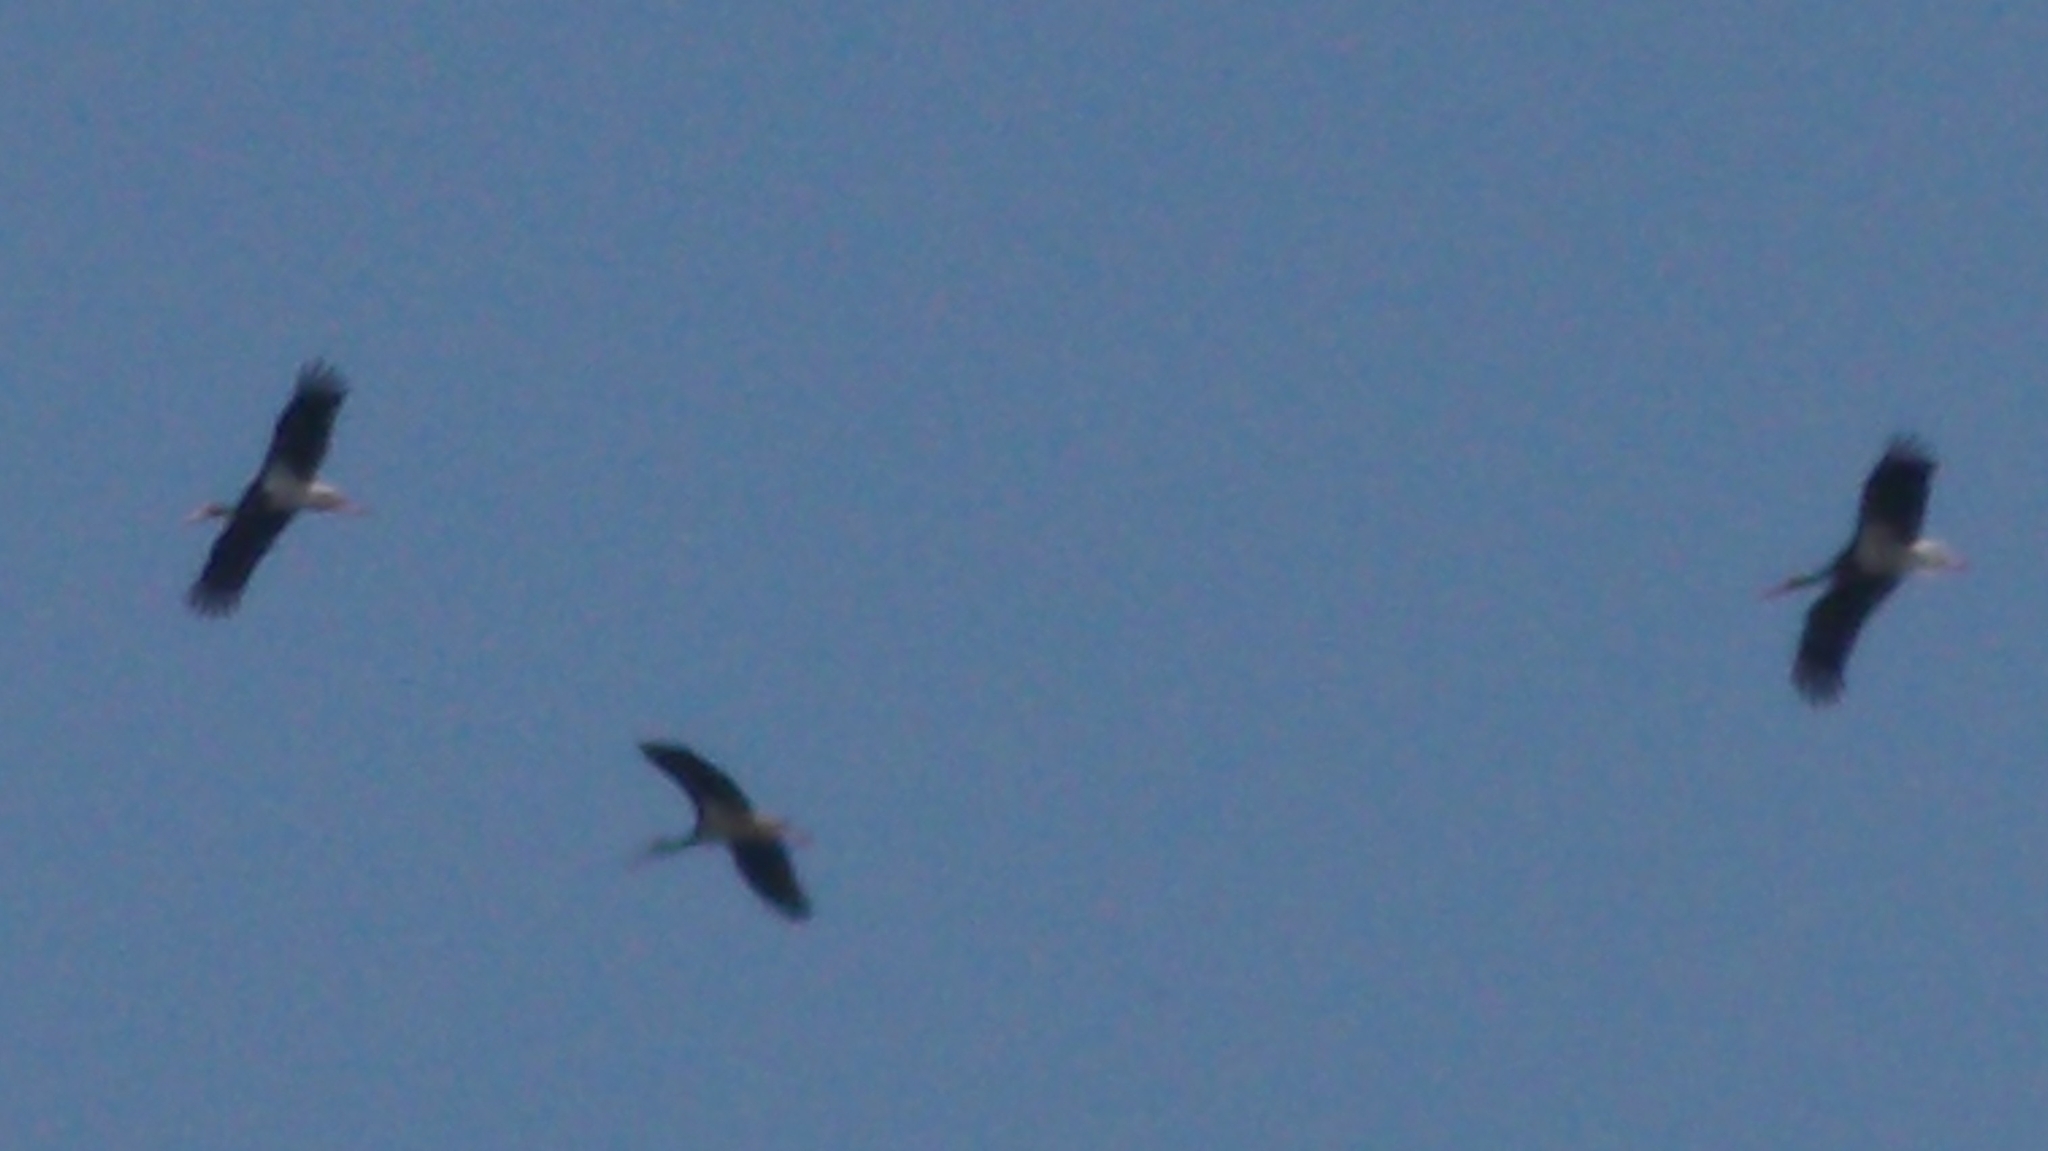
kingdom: Animalia
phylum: Chordata
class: Aves
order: Ciconiiformes
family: Ciconiidae
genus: Ciconia
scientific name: Ciconia nigra
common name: Black stork
